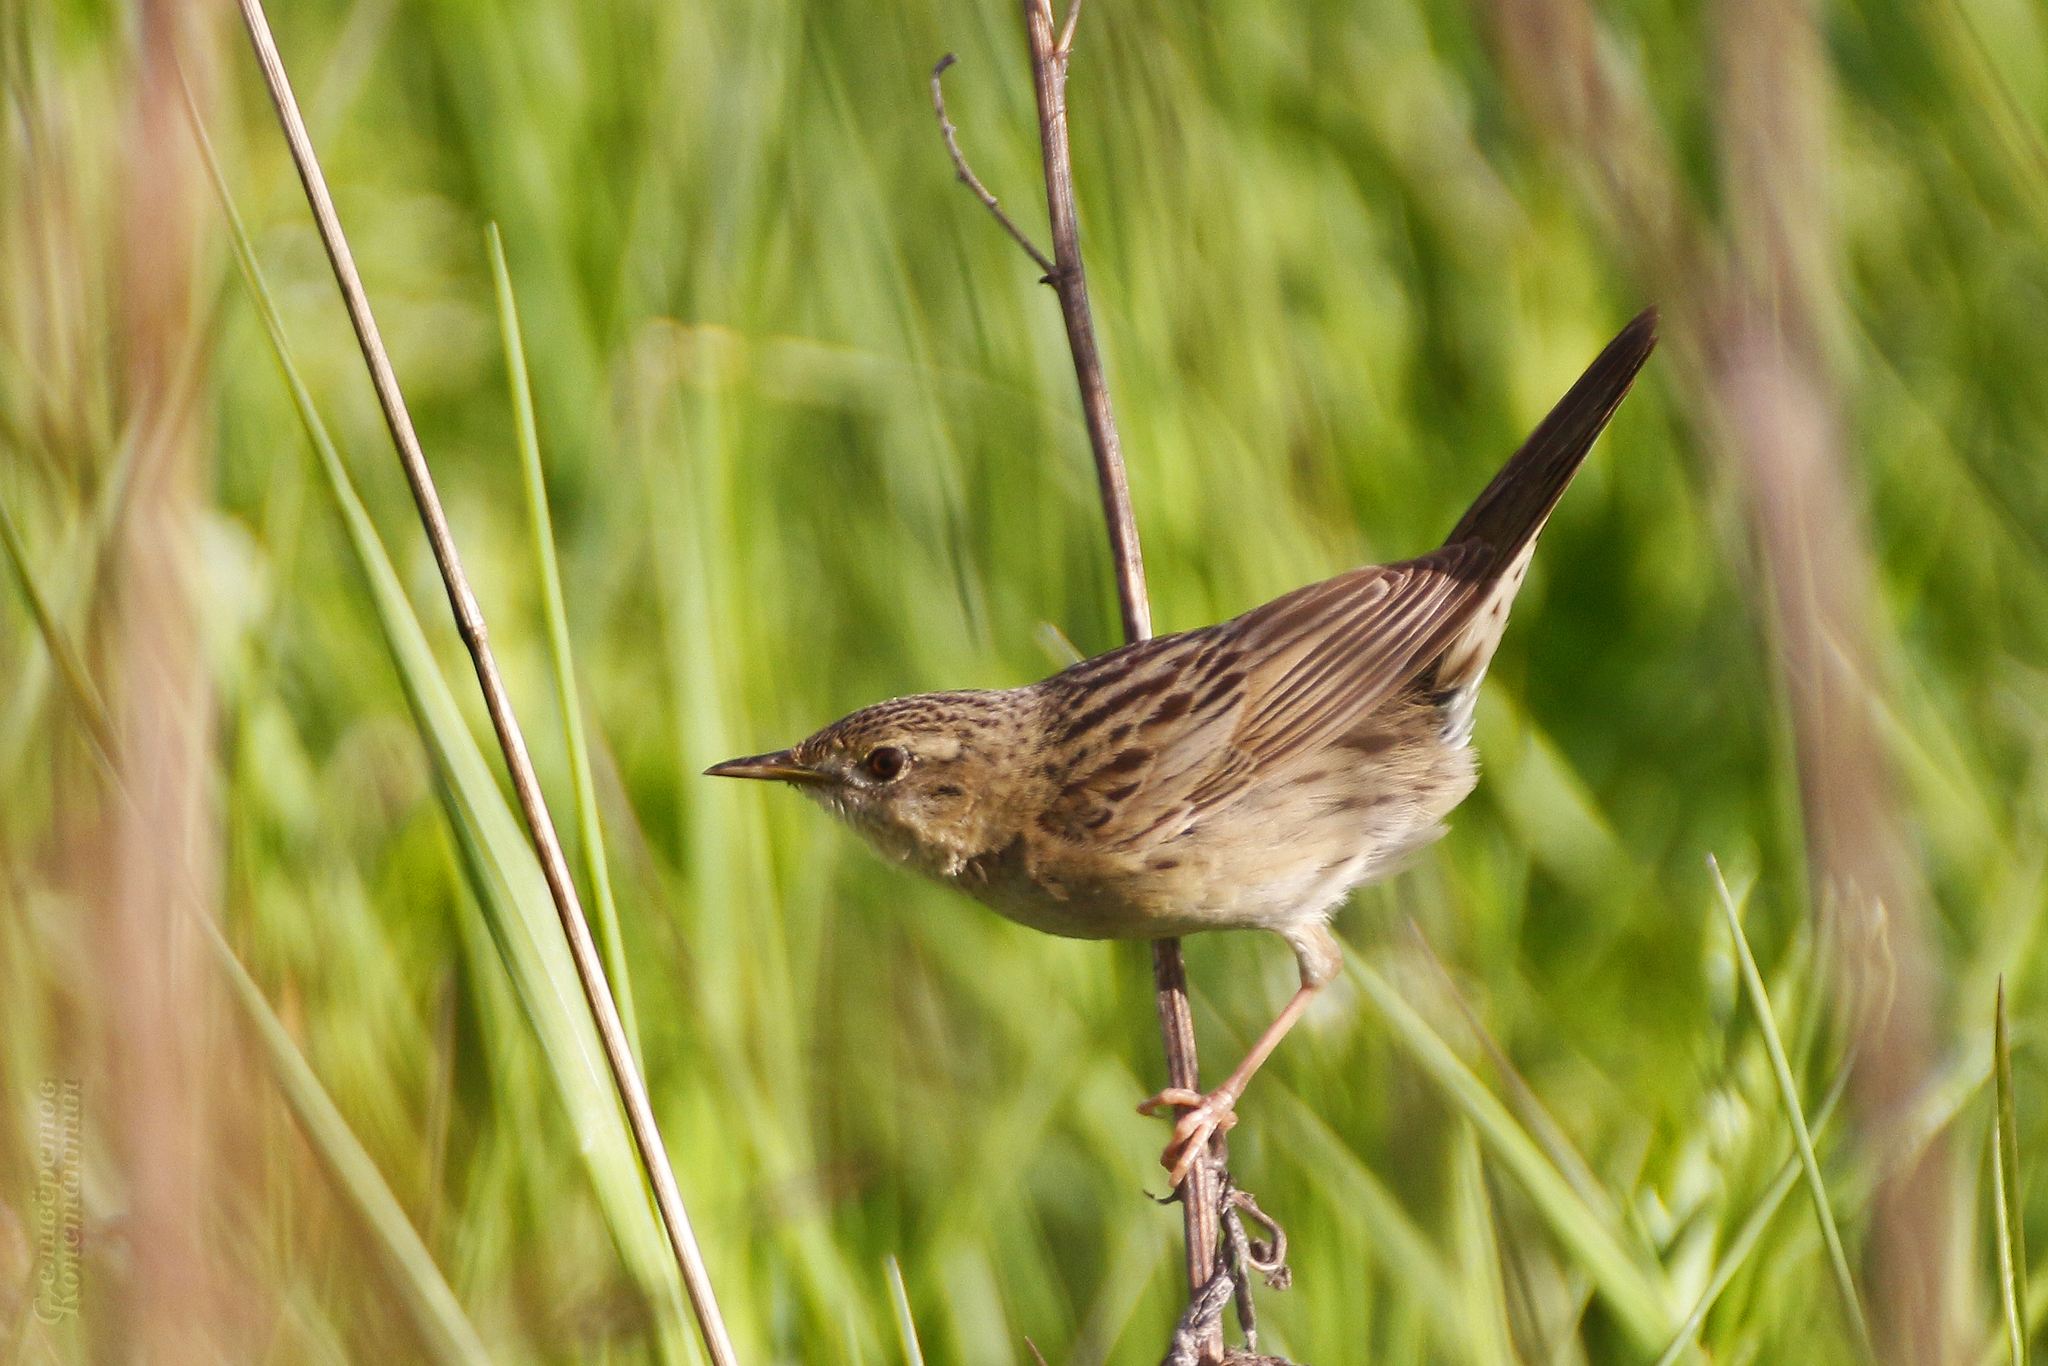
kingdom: Animalia
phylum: Chordata
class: Aves
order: Passeriformes
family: Locustellidae
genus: Locustella
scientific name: Locustella naevia
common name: Common grasshopper warbler
